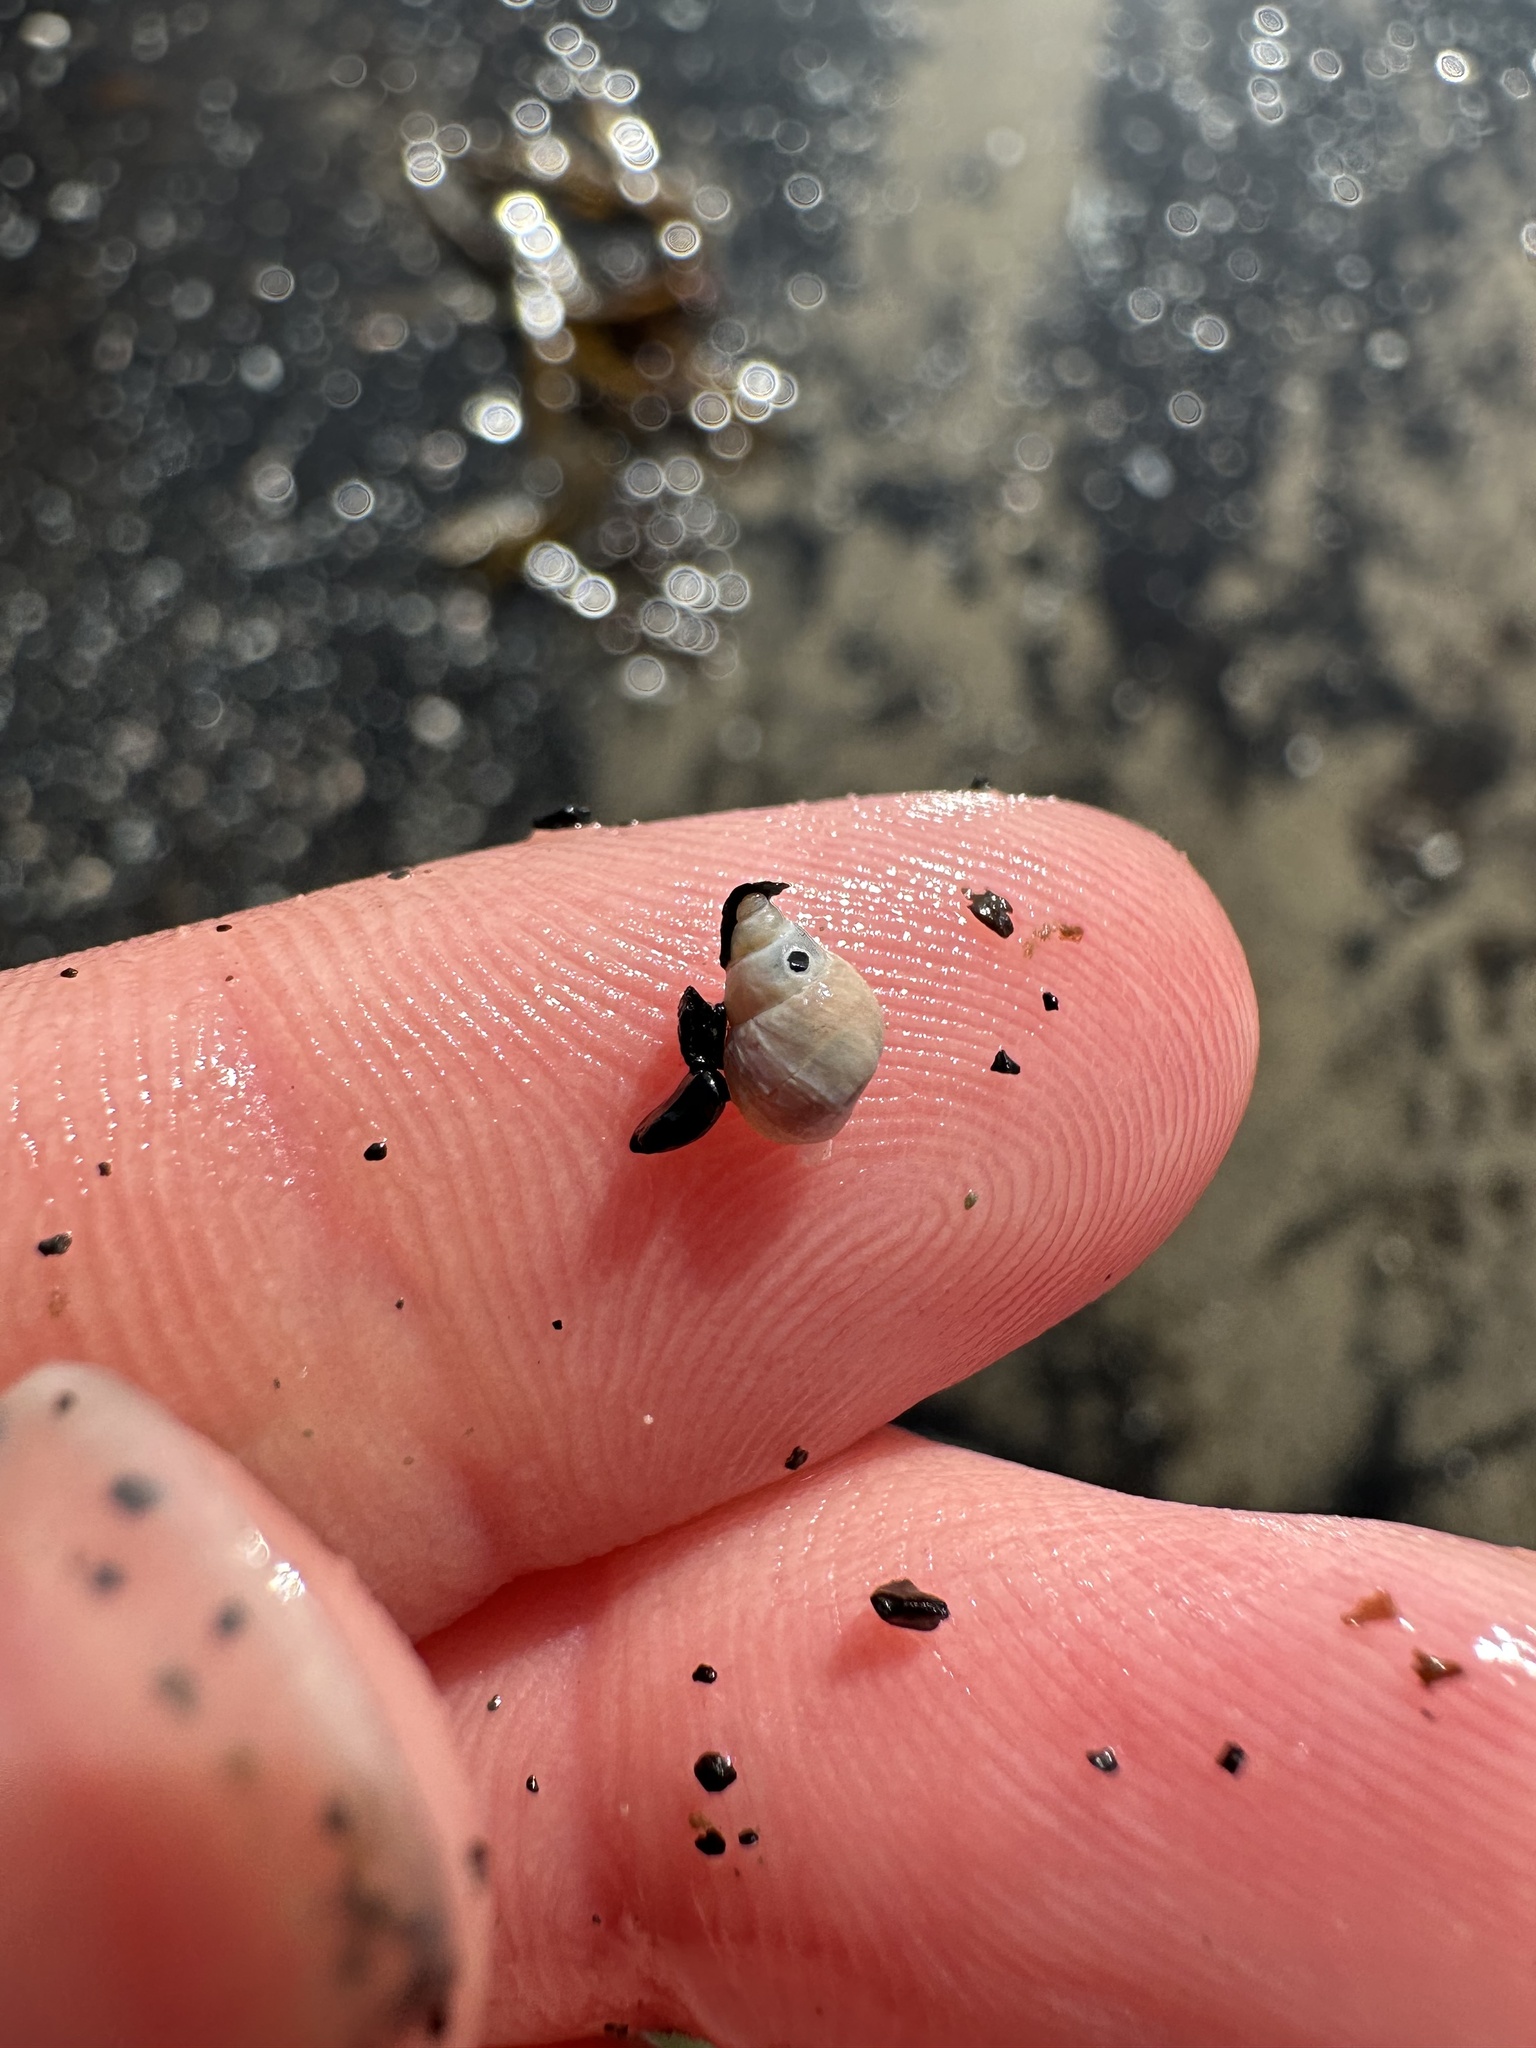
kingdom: Animalia
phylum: Mollusca
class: Gastropoda
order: Littorinimorpha
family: Littorinidae
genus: Lacuna
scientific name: Lacuna vincta
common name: Banded chink shell
